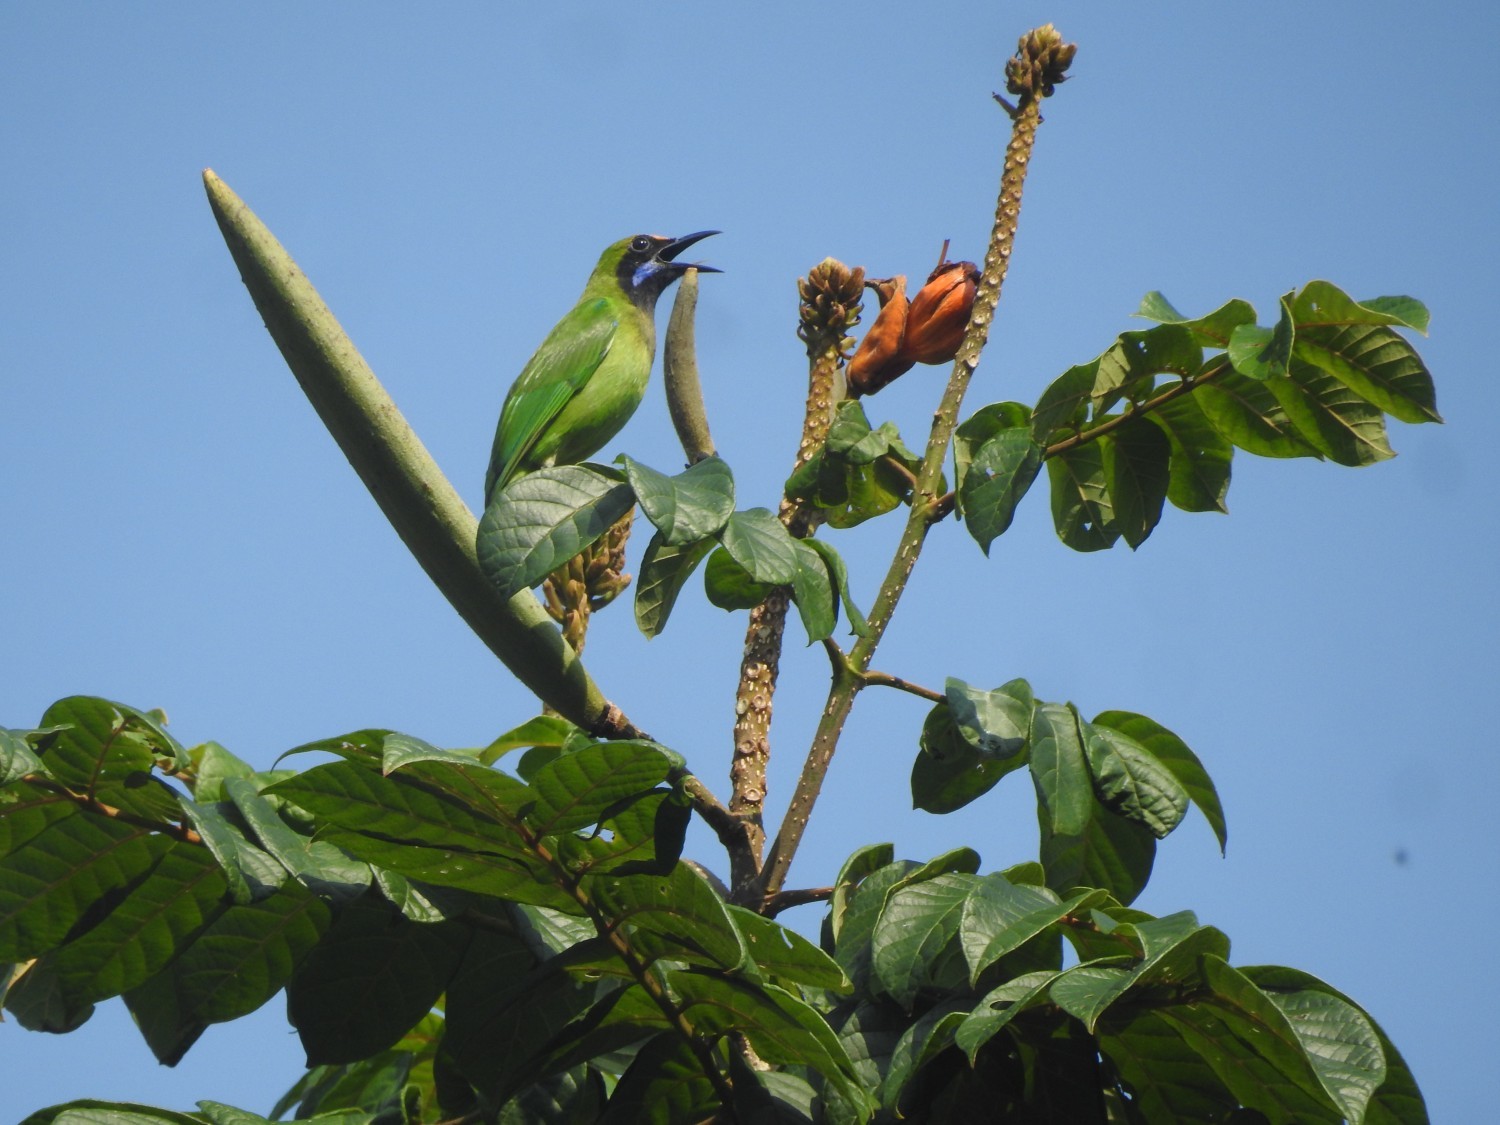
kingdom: Animalia
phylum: Chordata
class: Aves
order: Passeriformes
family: Chloropseidae
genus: Chloropsis
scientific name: Chloropsis aurifrons
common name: Golden-fronted leafbird
